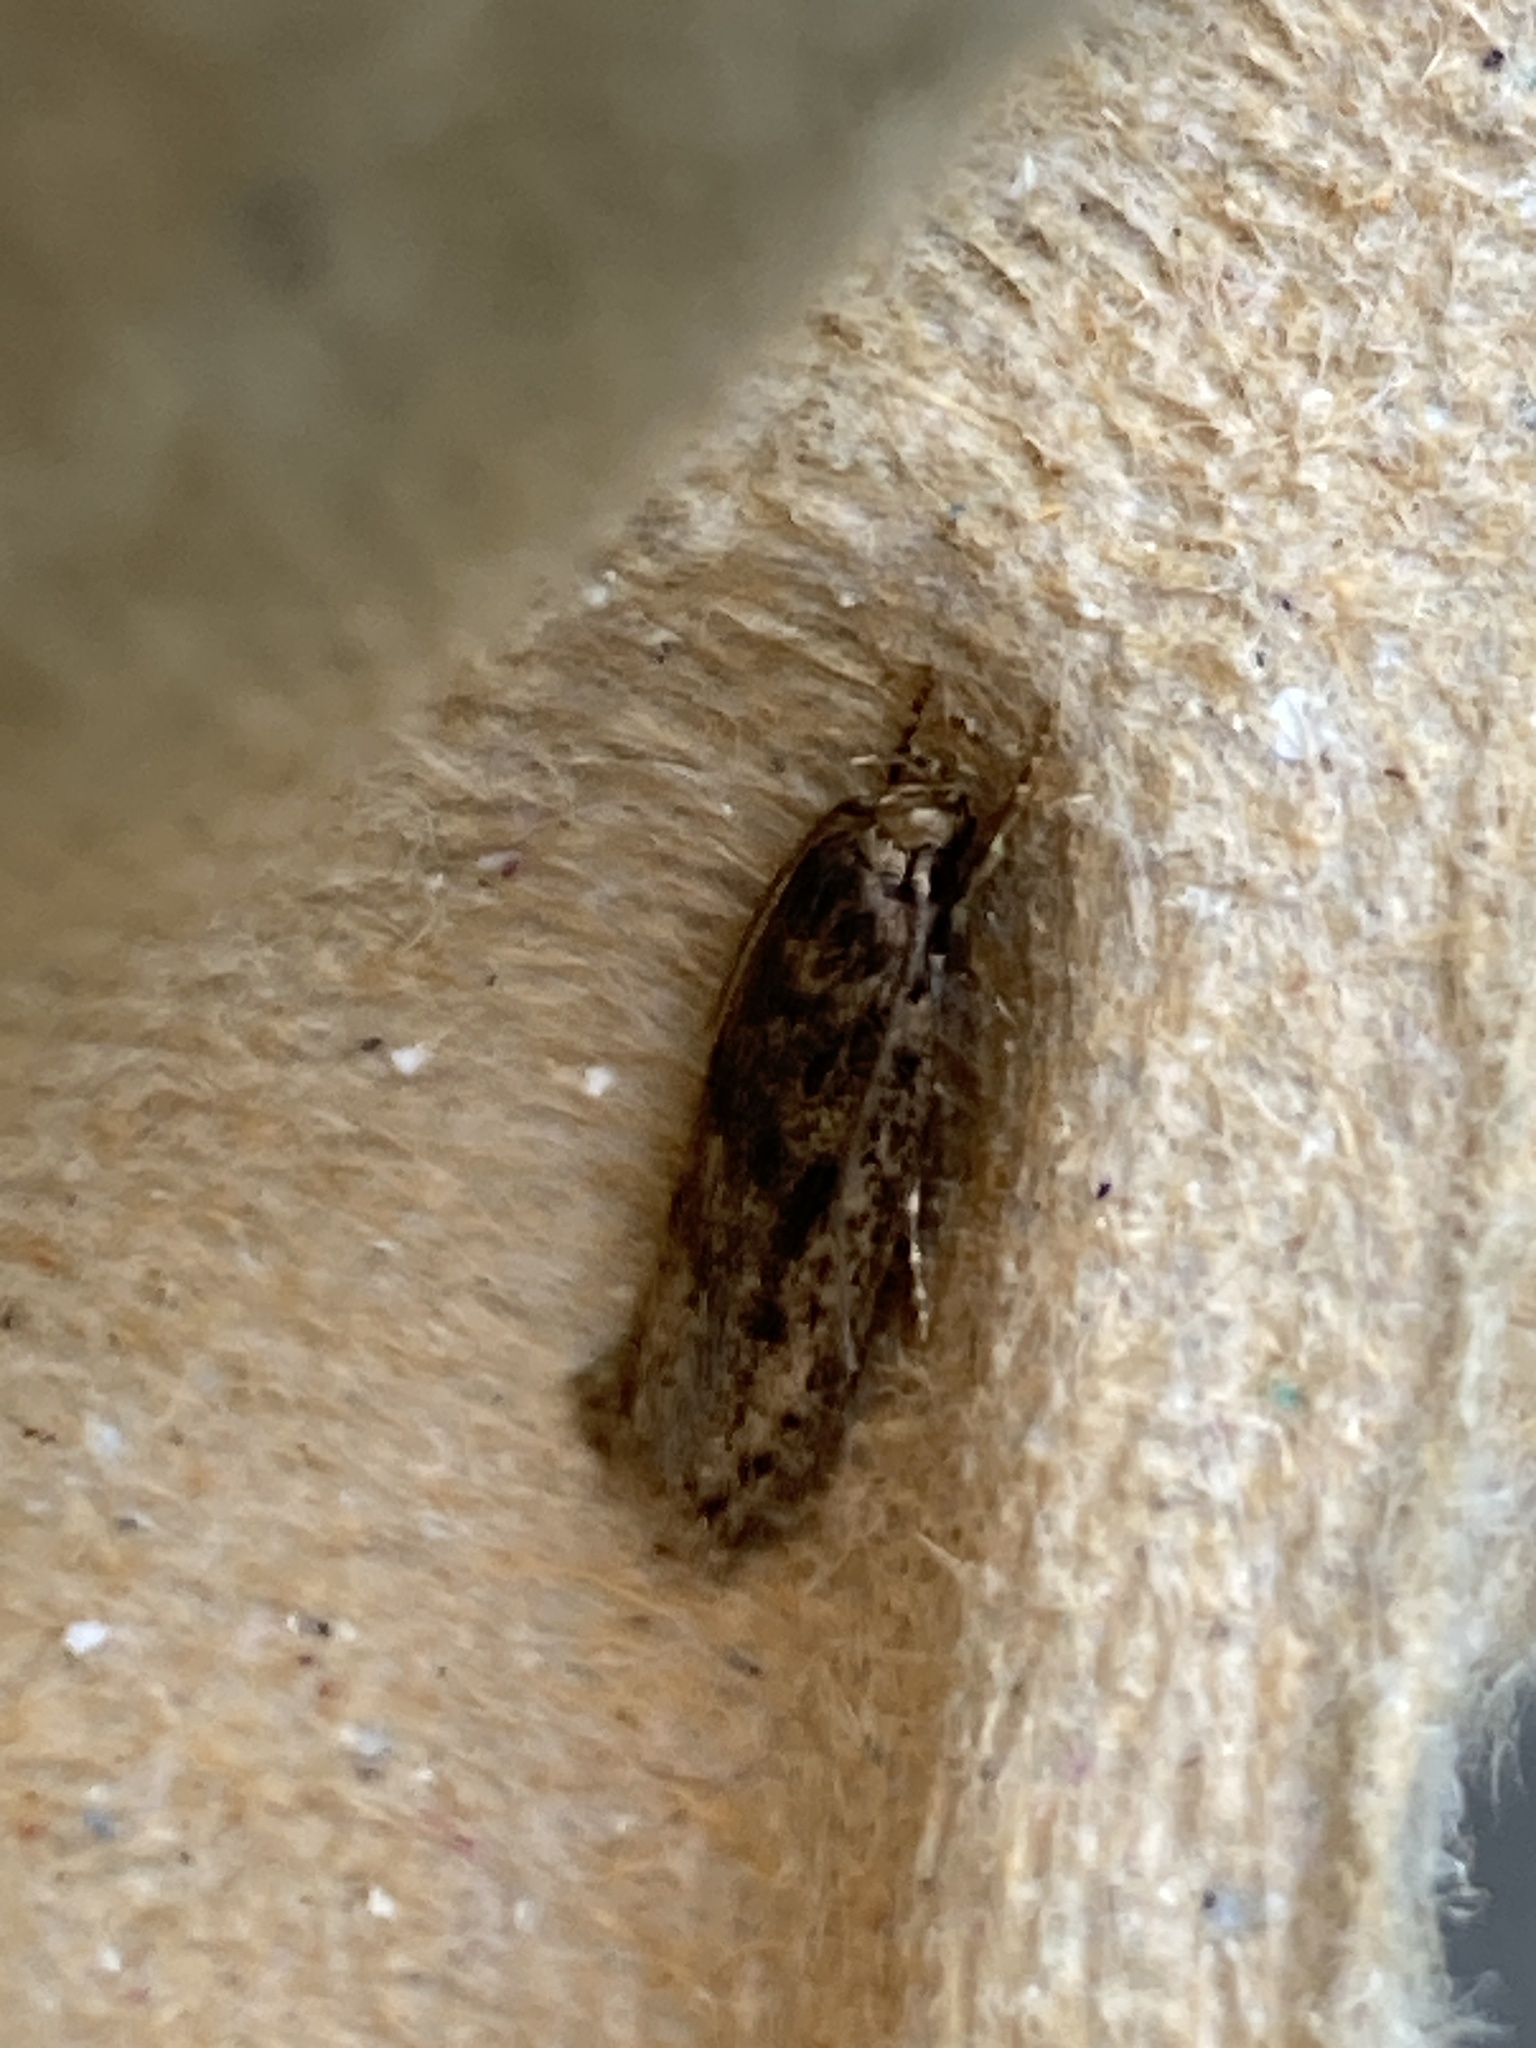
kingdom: Animalia
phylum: Arthropoda
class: Insecta
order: Lepidoptera
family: Oecophoridae
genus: Hofmannophila
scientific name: Hofmannophila pseudospretella
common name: Brown house moth
